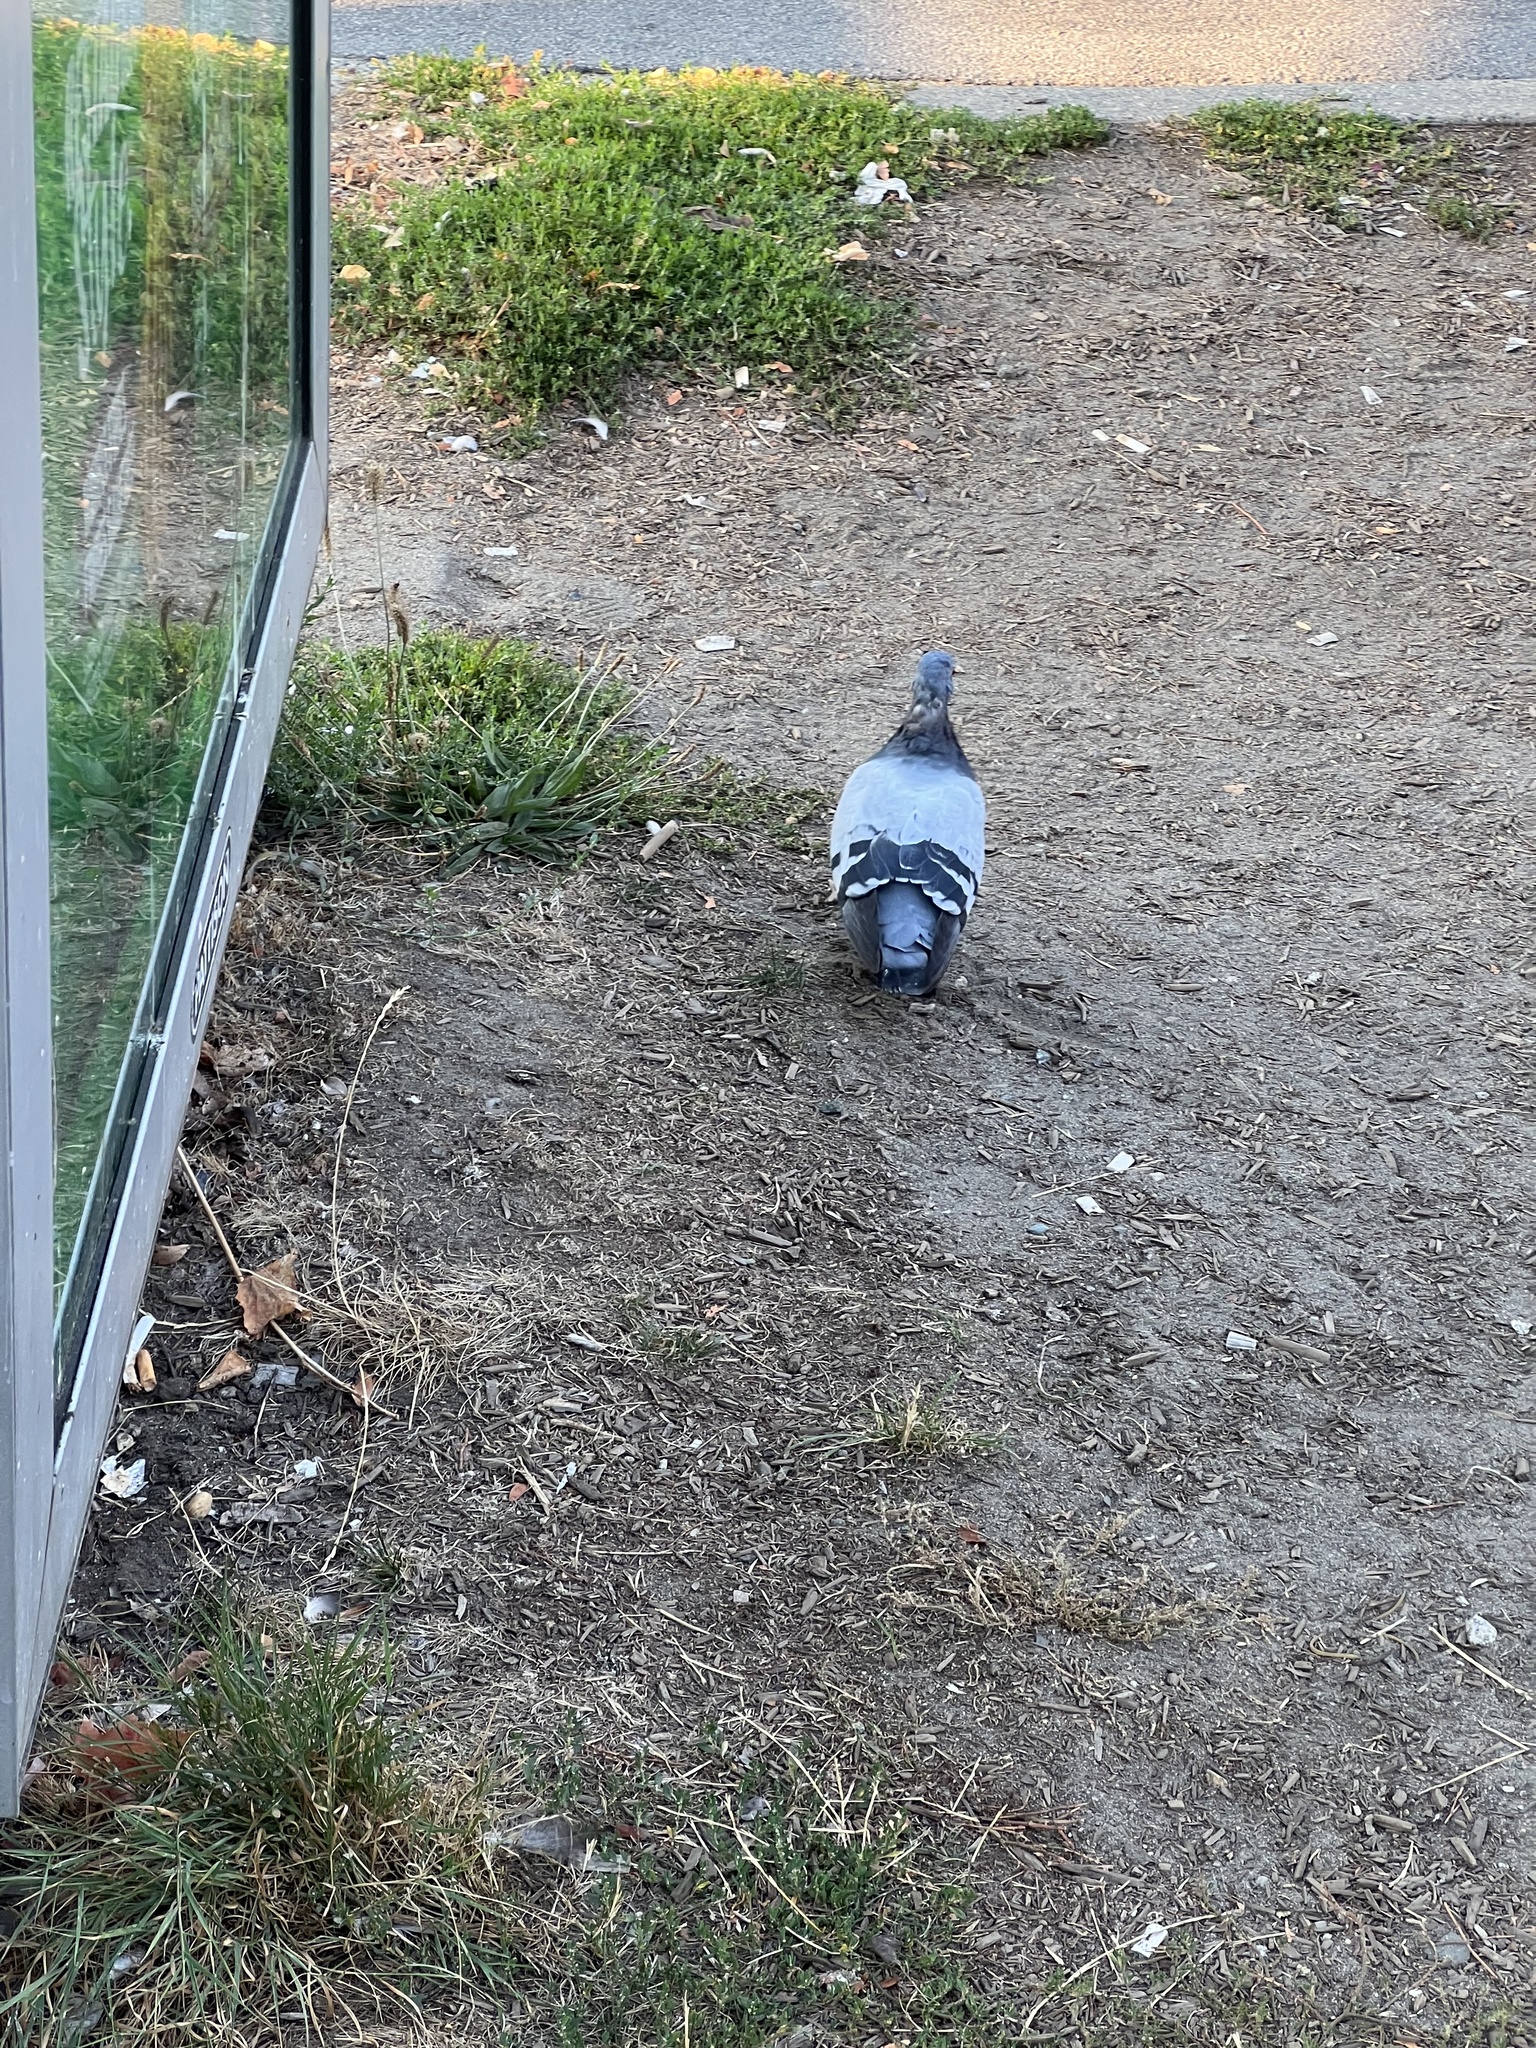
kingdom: Animalia
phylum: Chordata
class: Aves
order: Columbiformes
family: Columbidae
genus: Columba
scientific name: Columba livia
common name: Rock pigeon
